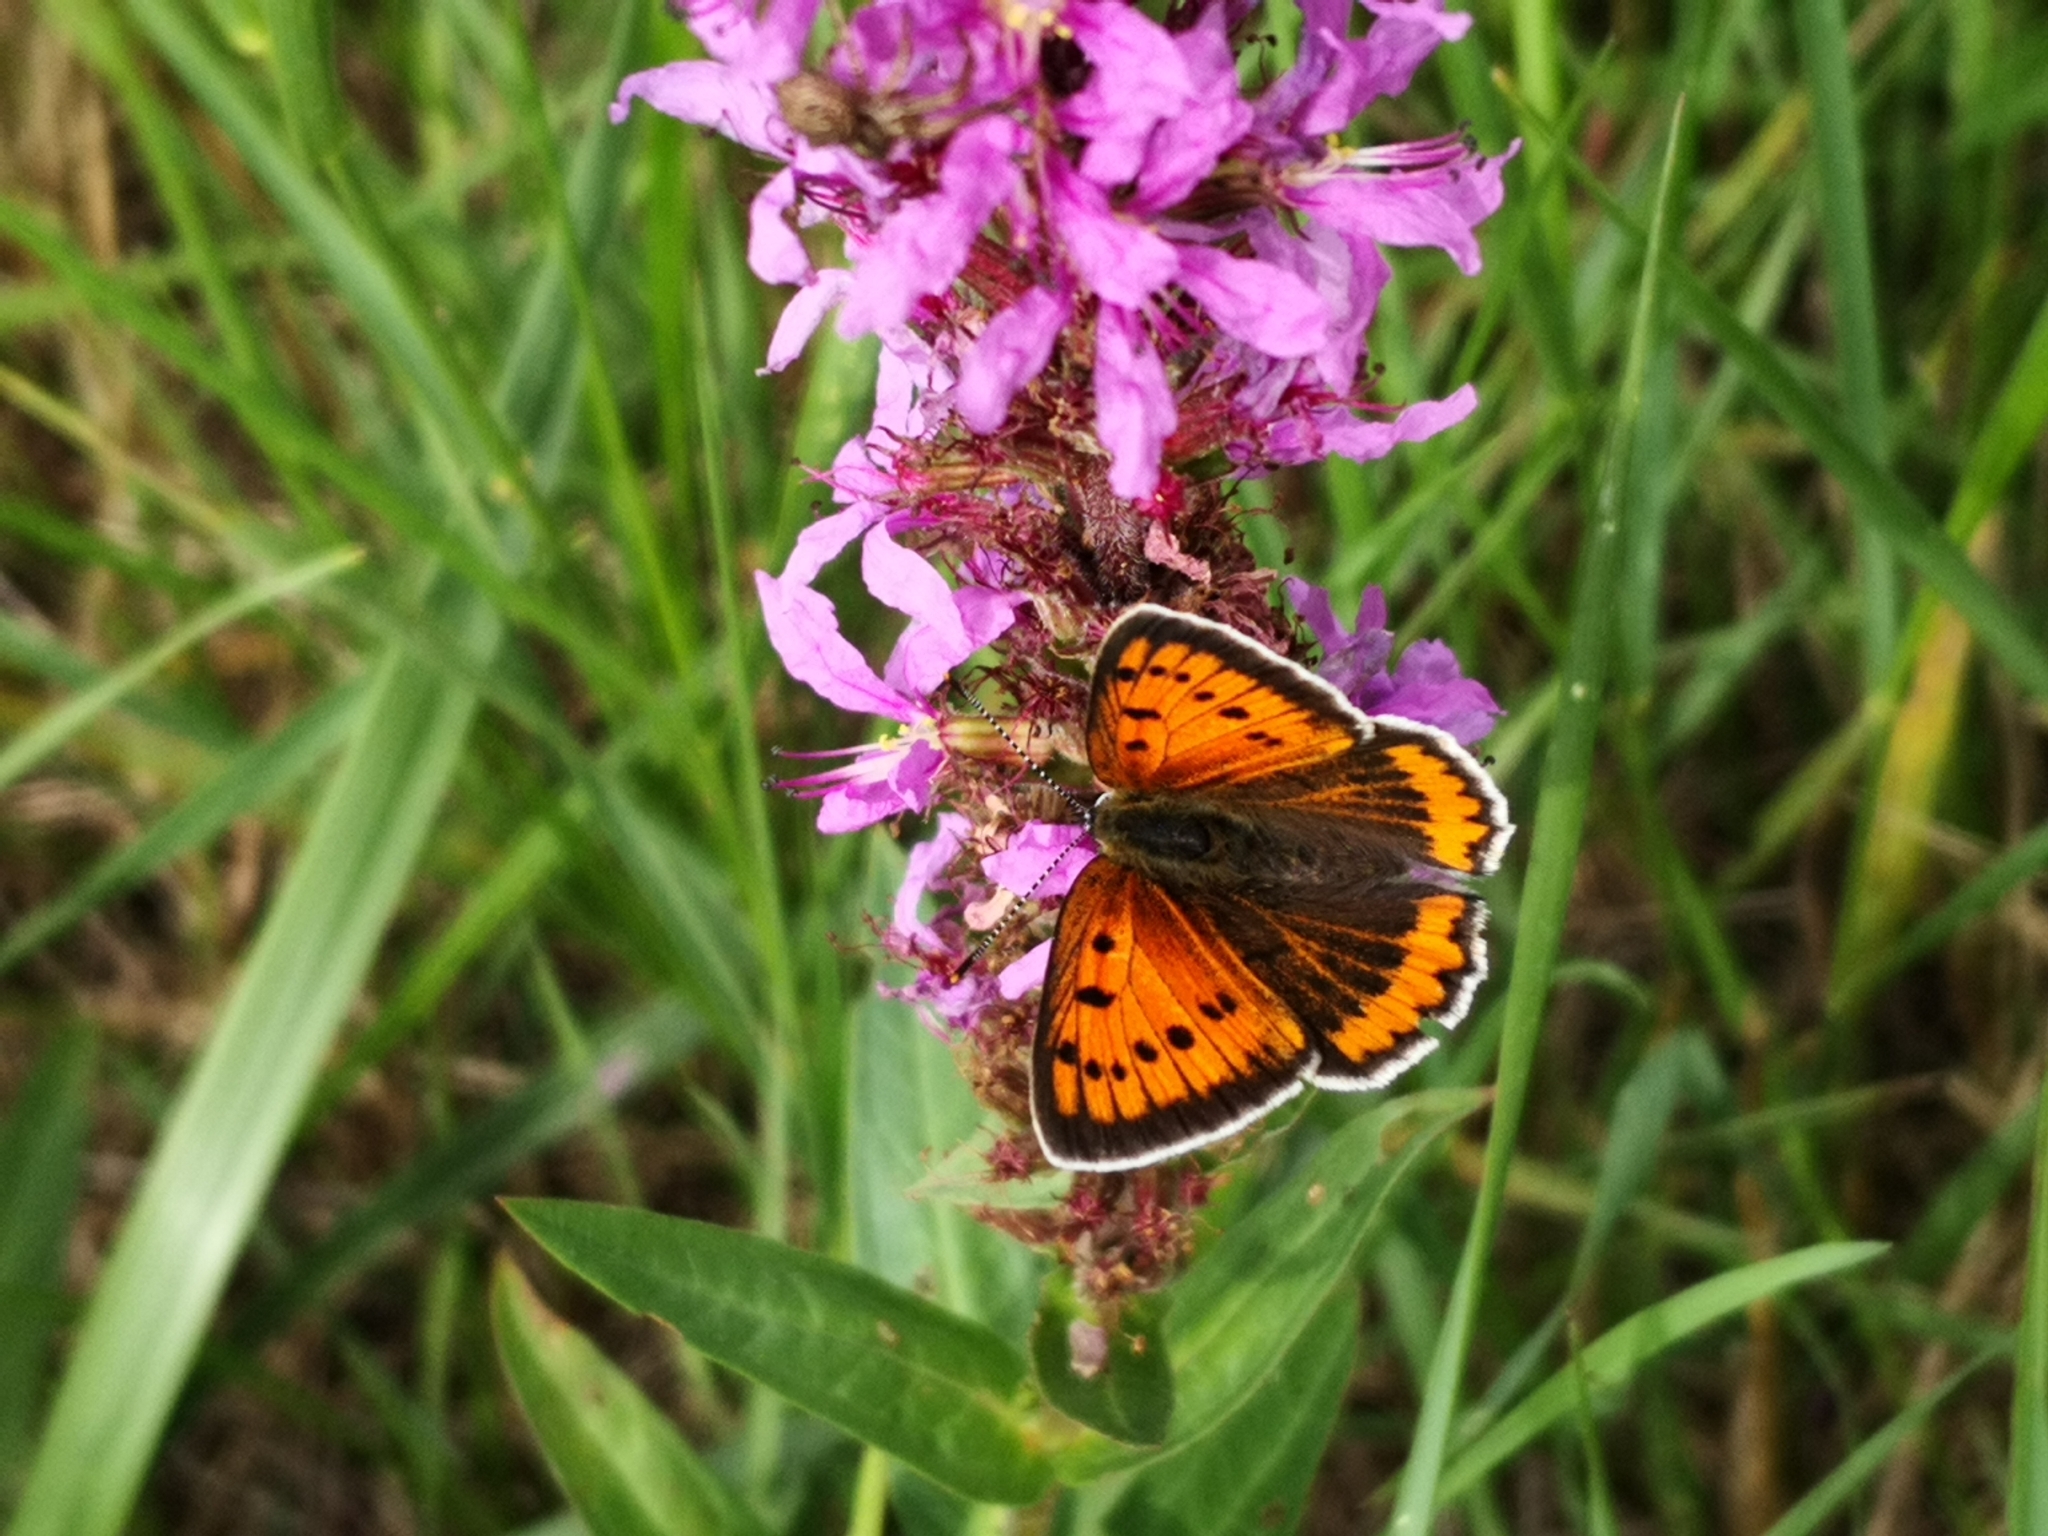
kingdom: Animalia
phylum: Arthropoda
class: Insecta
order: Lepidoptera
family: Lycaenidae
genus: Lycaena
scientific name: Lycaena dispar
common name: Large copper
